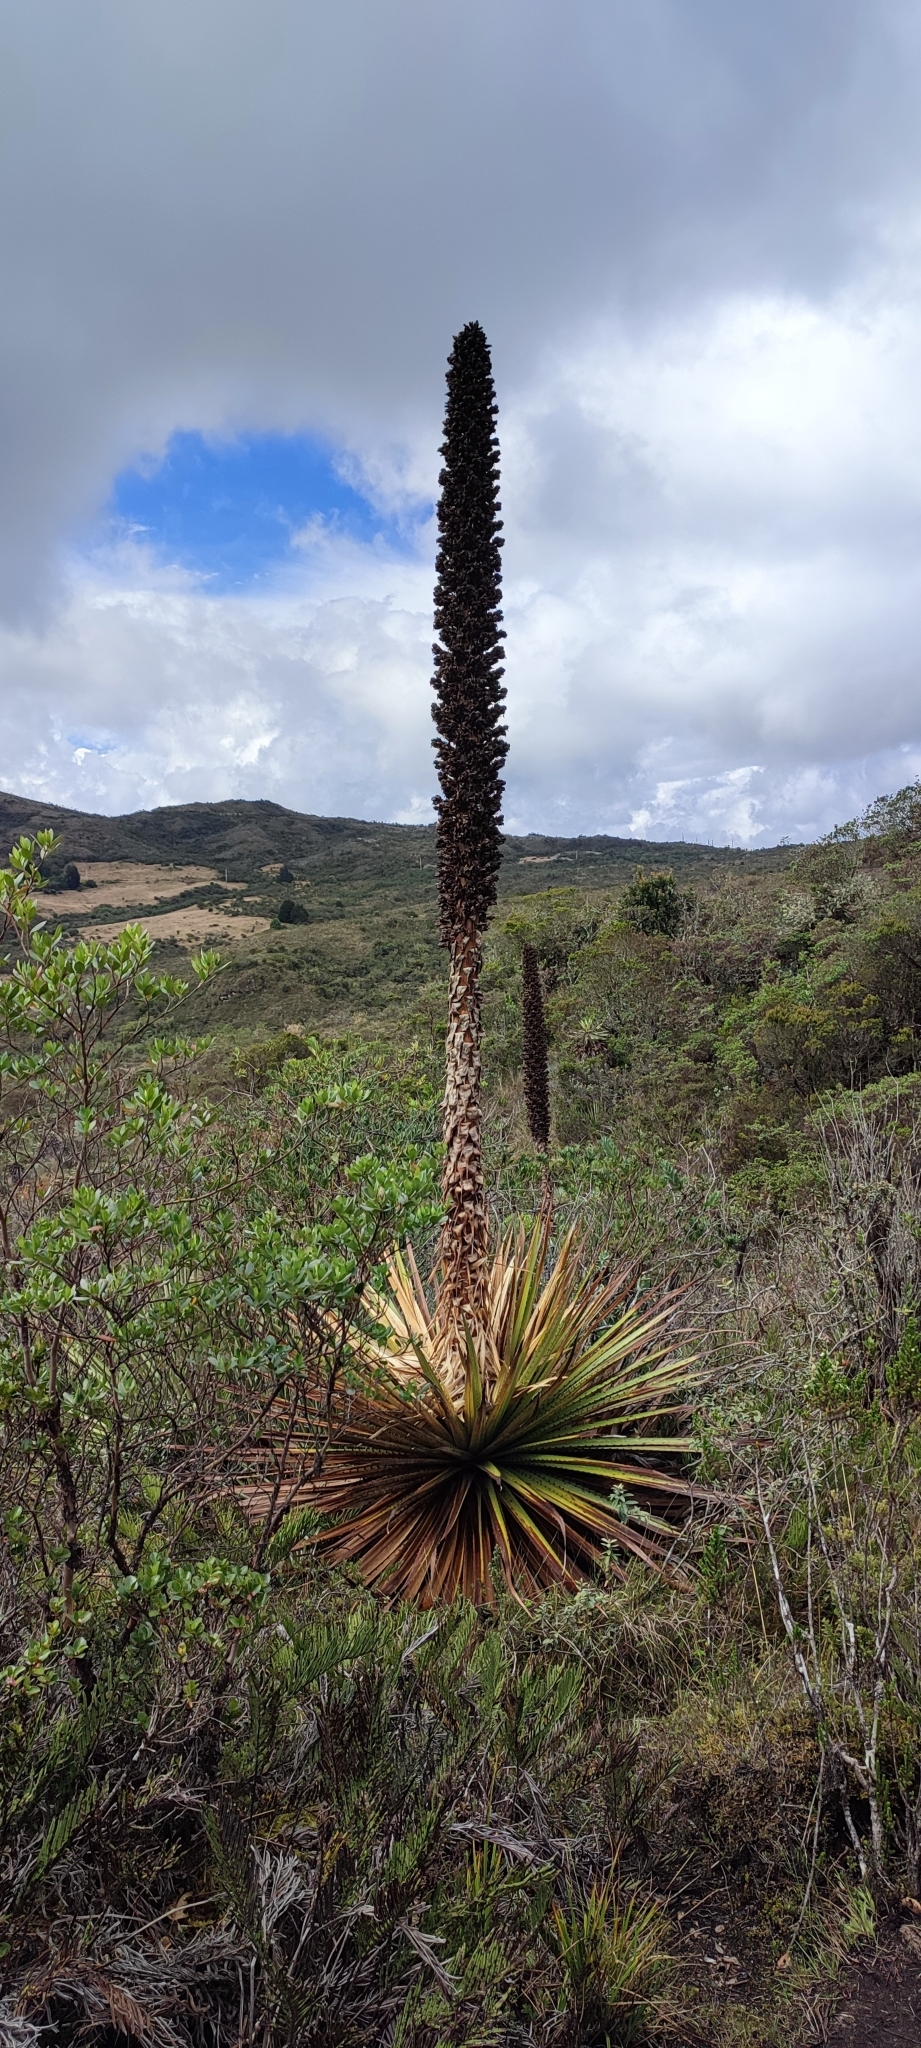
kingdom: Plantae
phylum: Tracheophyta
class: Liliopsida
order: Poales
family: Bromeliaceae
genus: Puya
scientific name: Puya goudotiana
